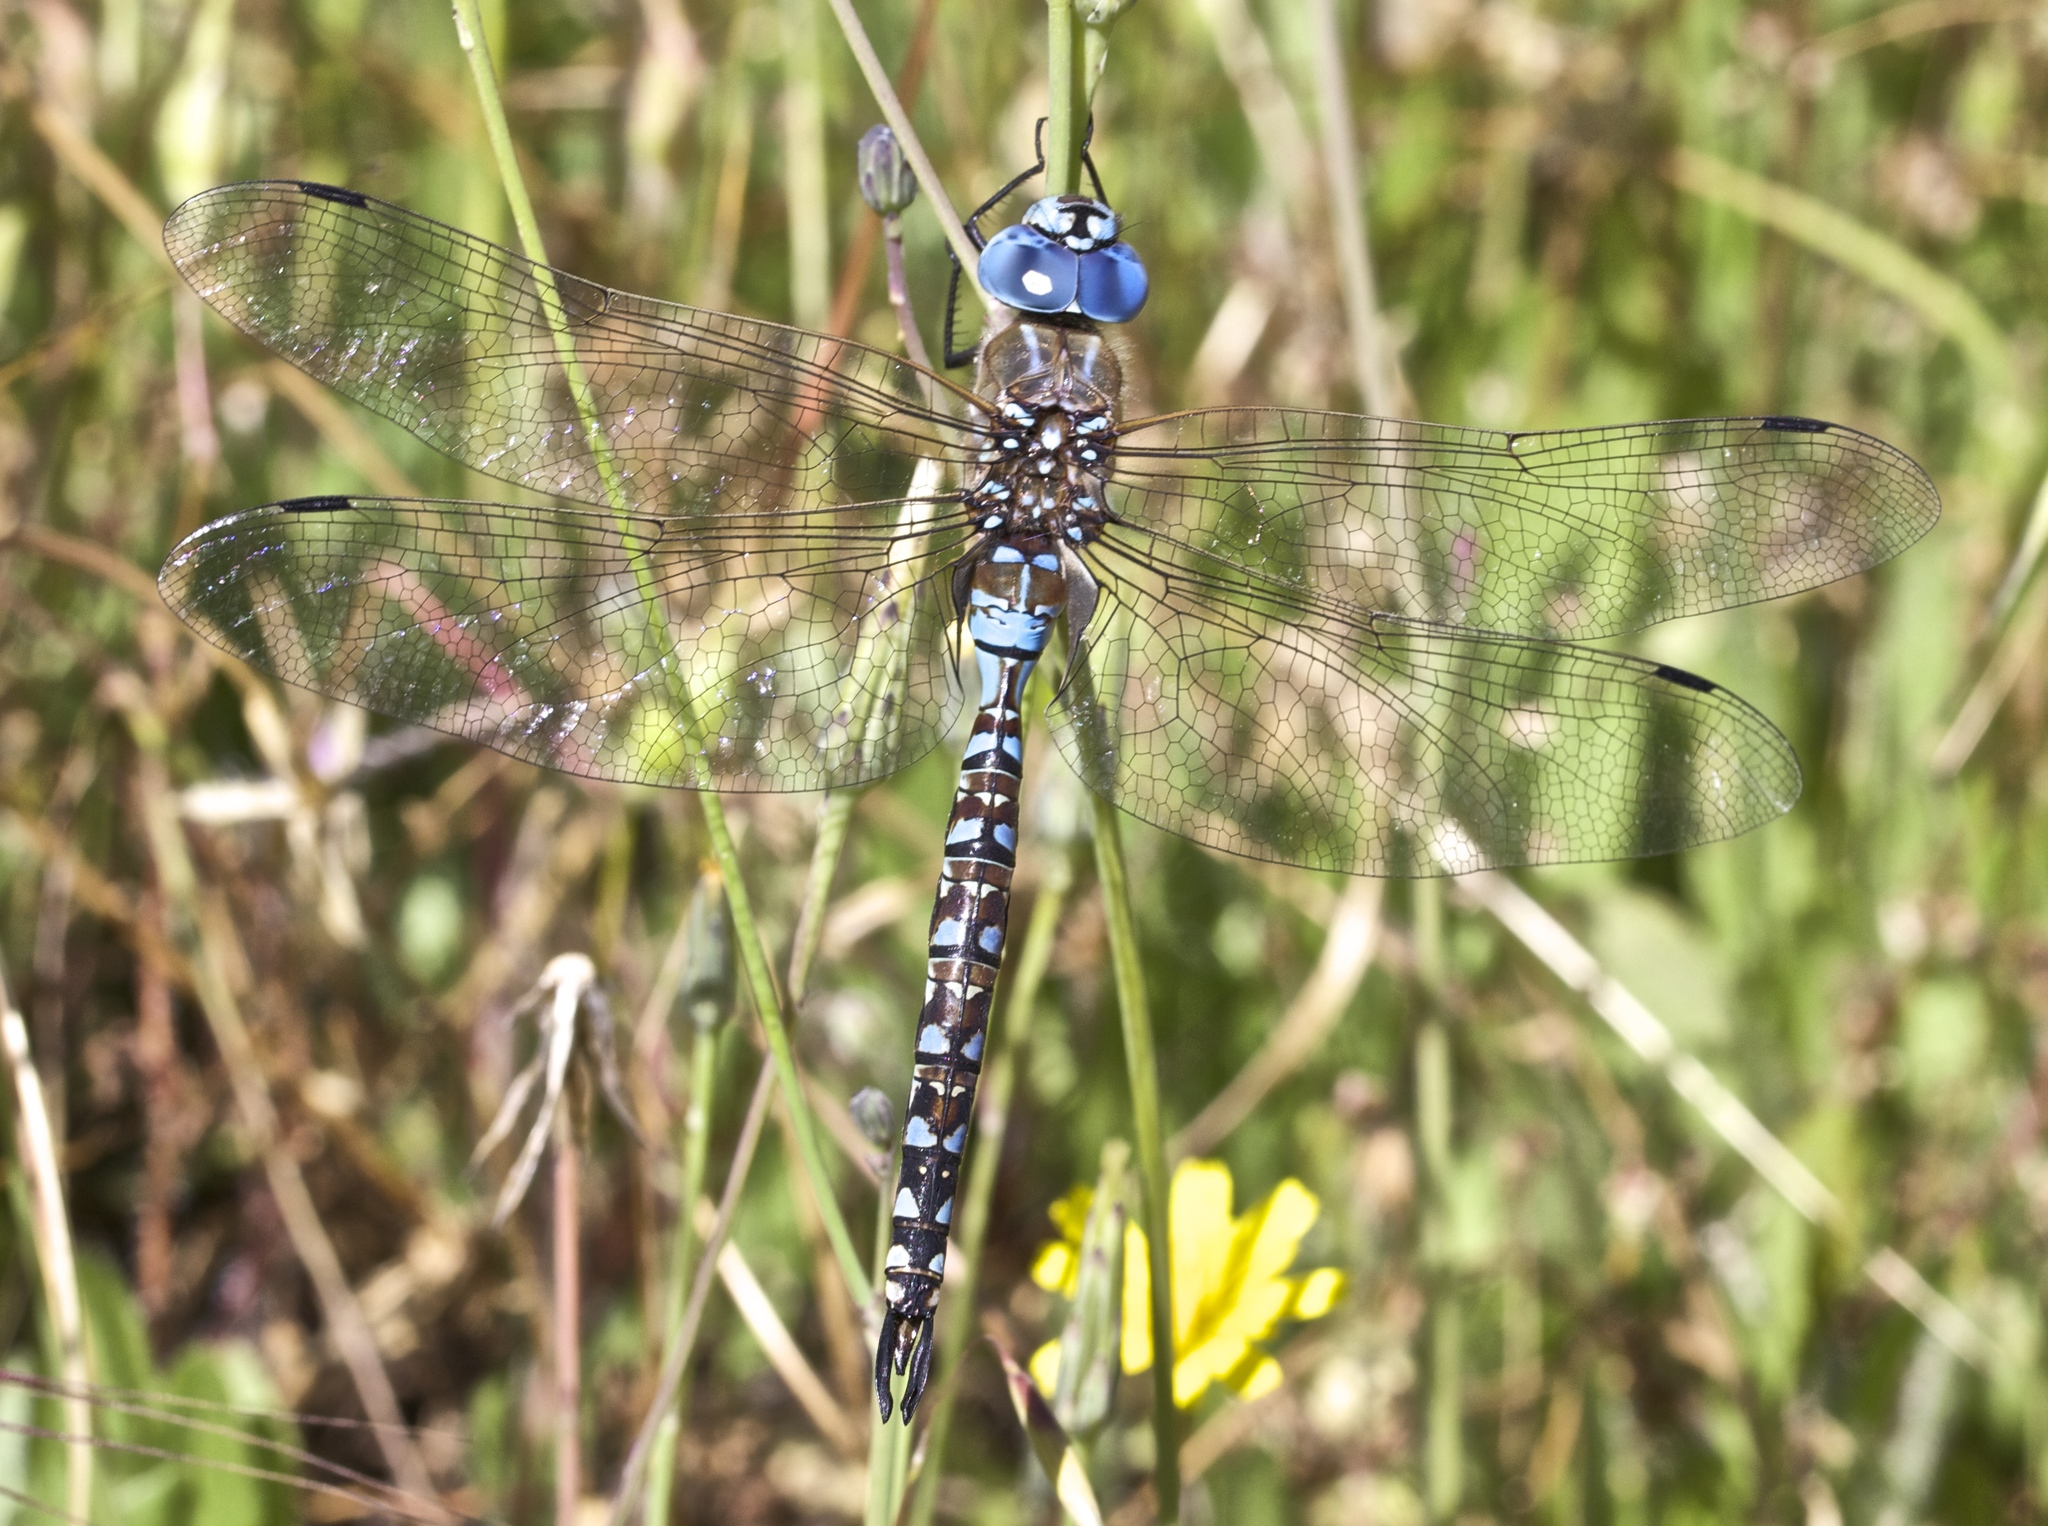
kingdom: Animalia
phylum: Arthropoda
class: Insecta
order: Odonata
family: Aeshnidae
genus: Rhionaeschna
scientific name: Rhionaeschna multicolor
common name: Blue-eyed darner
